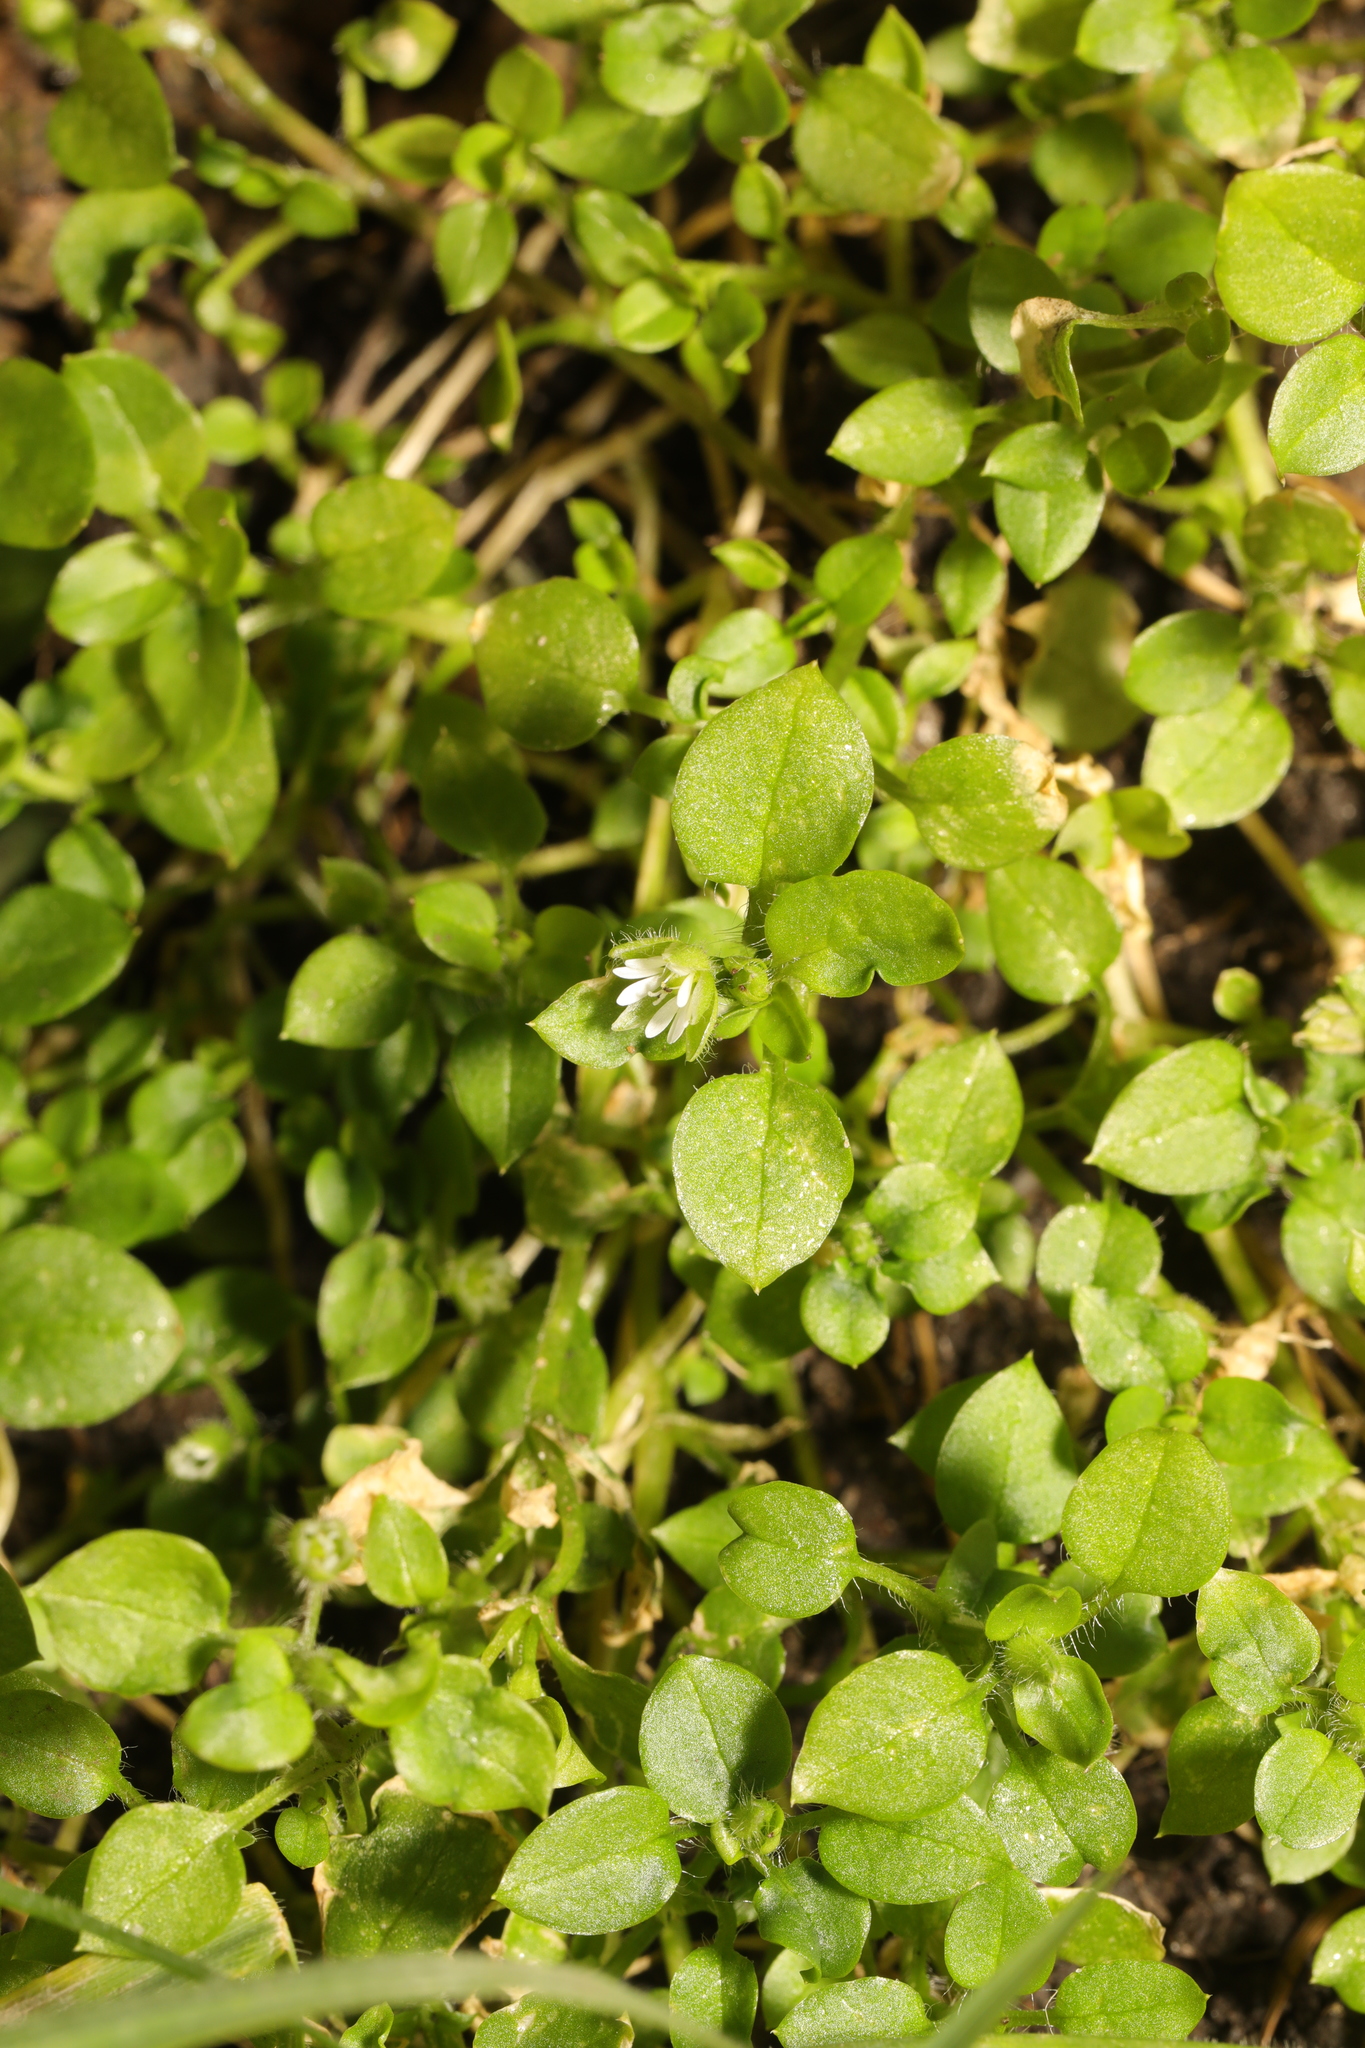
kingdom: Plantae
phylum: Tracheophyta
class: Magnoliopsida
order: Caryophyllales
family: Caryophyllaceae
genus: Stellaria
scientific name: Stellaria media
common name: Common chickweed
